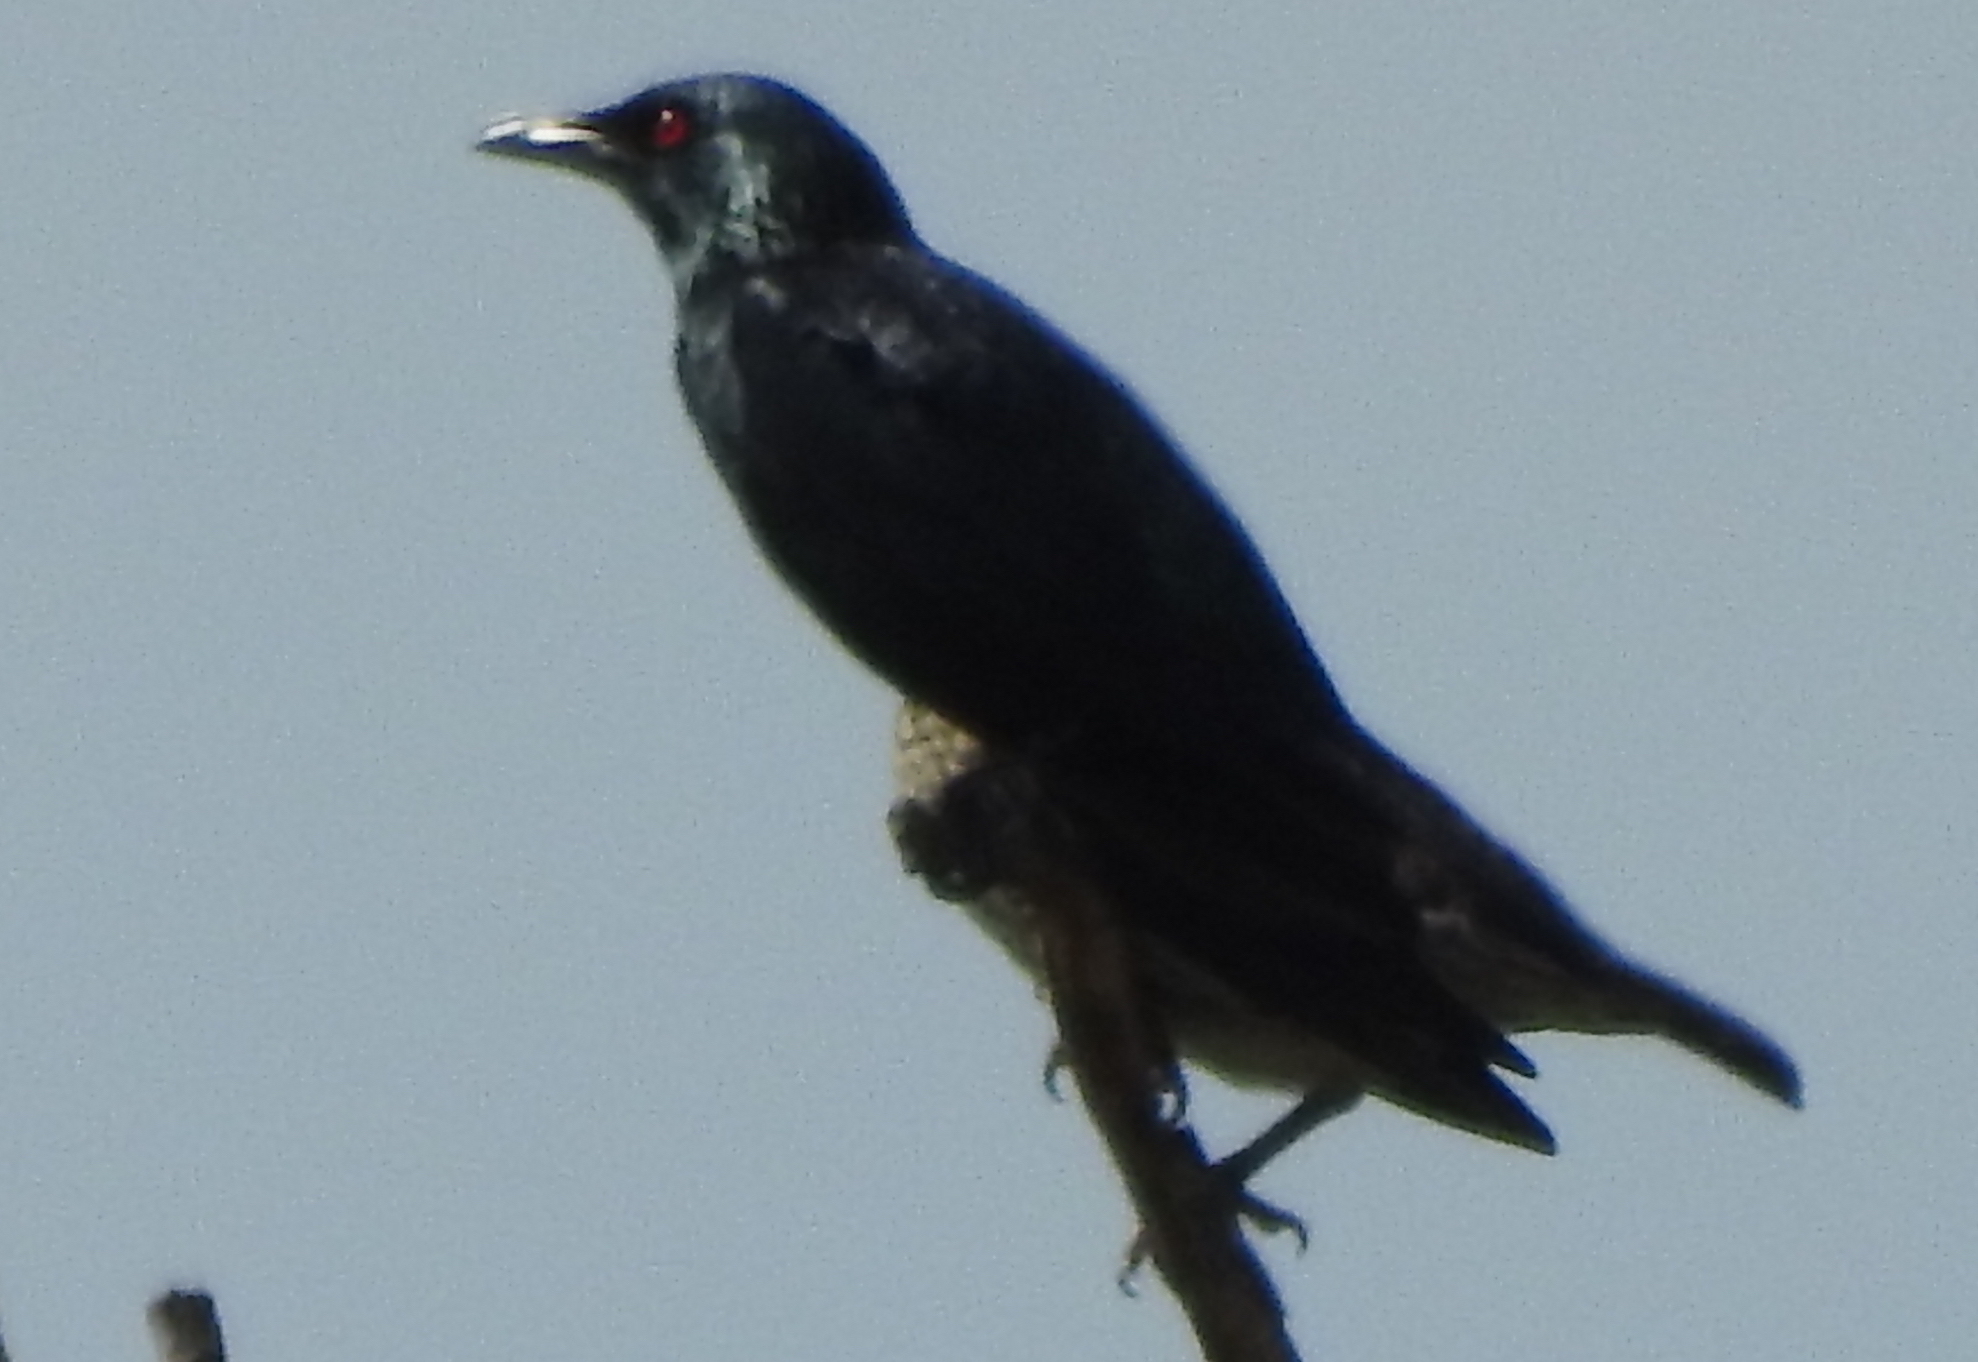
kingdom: Animalia
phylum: Chordata
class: Aves
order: Passeriformes
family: Sturnidae
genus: Aplonis
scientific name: Aplonis panayensis
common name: Asian glossy starling
